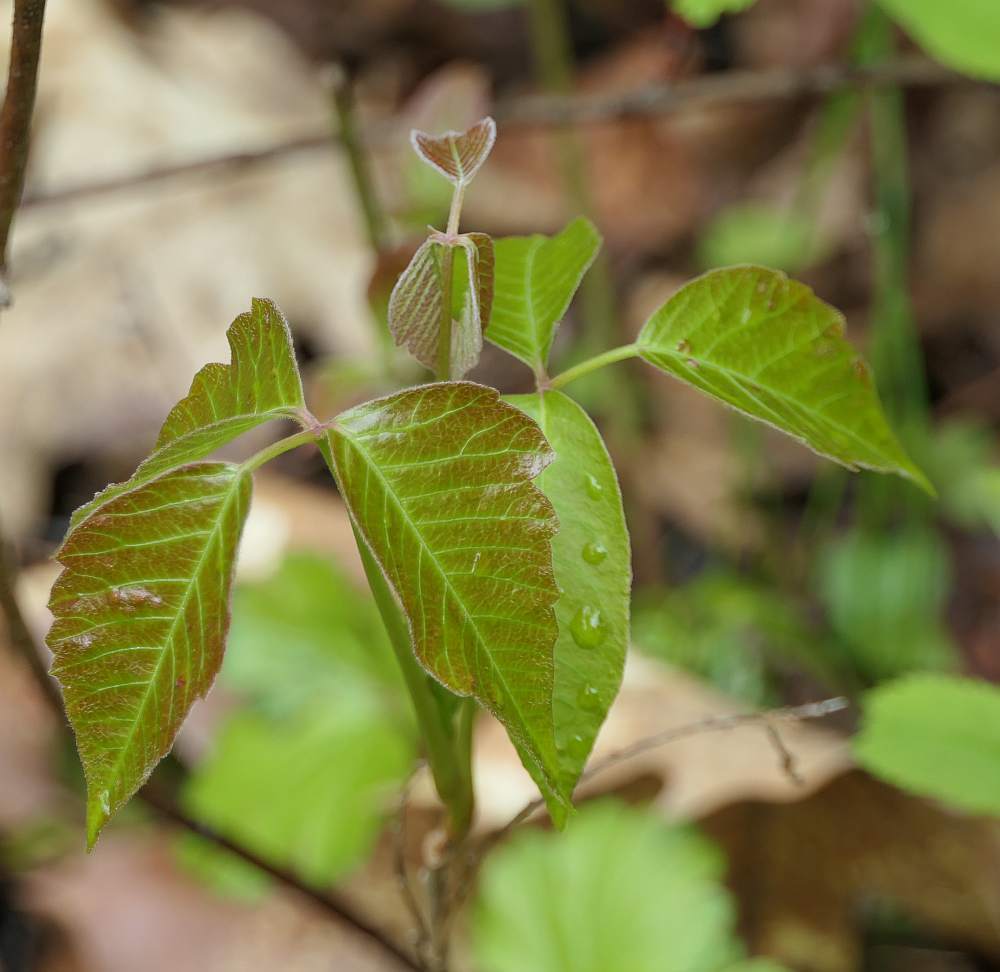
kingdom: Plantae
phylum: Tracheophyta
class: Magnoliopsida
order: Sapindales
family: Anacardiaceae
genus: Toxicodendron
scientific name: Toxicodendron radicans
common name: Poison ivy
